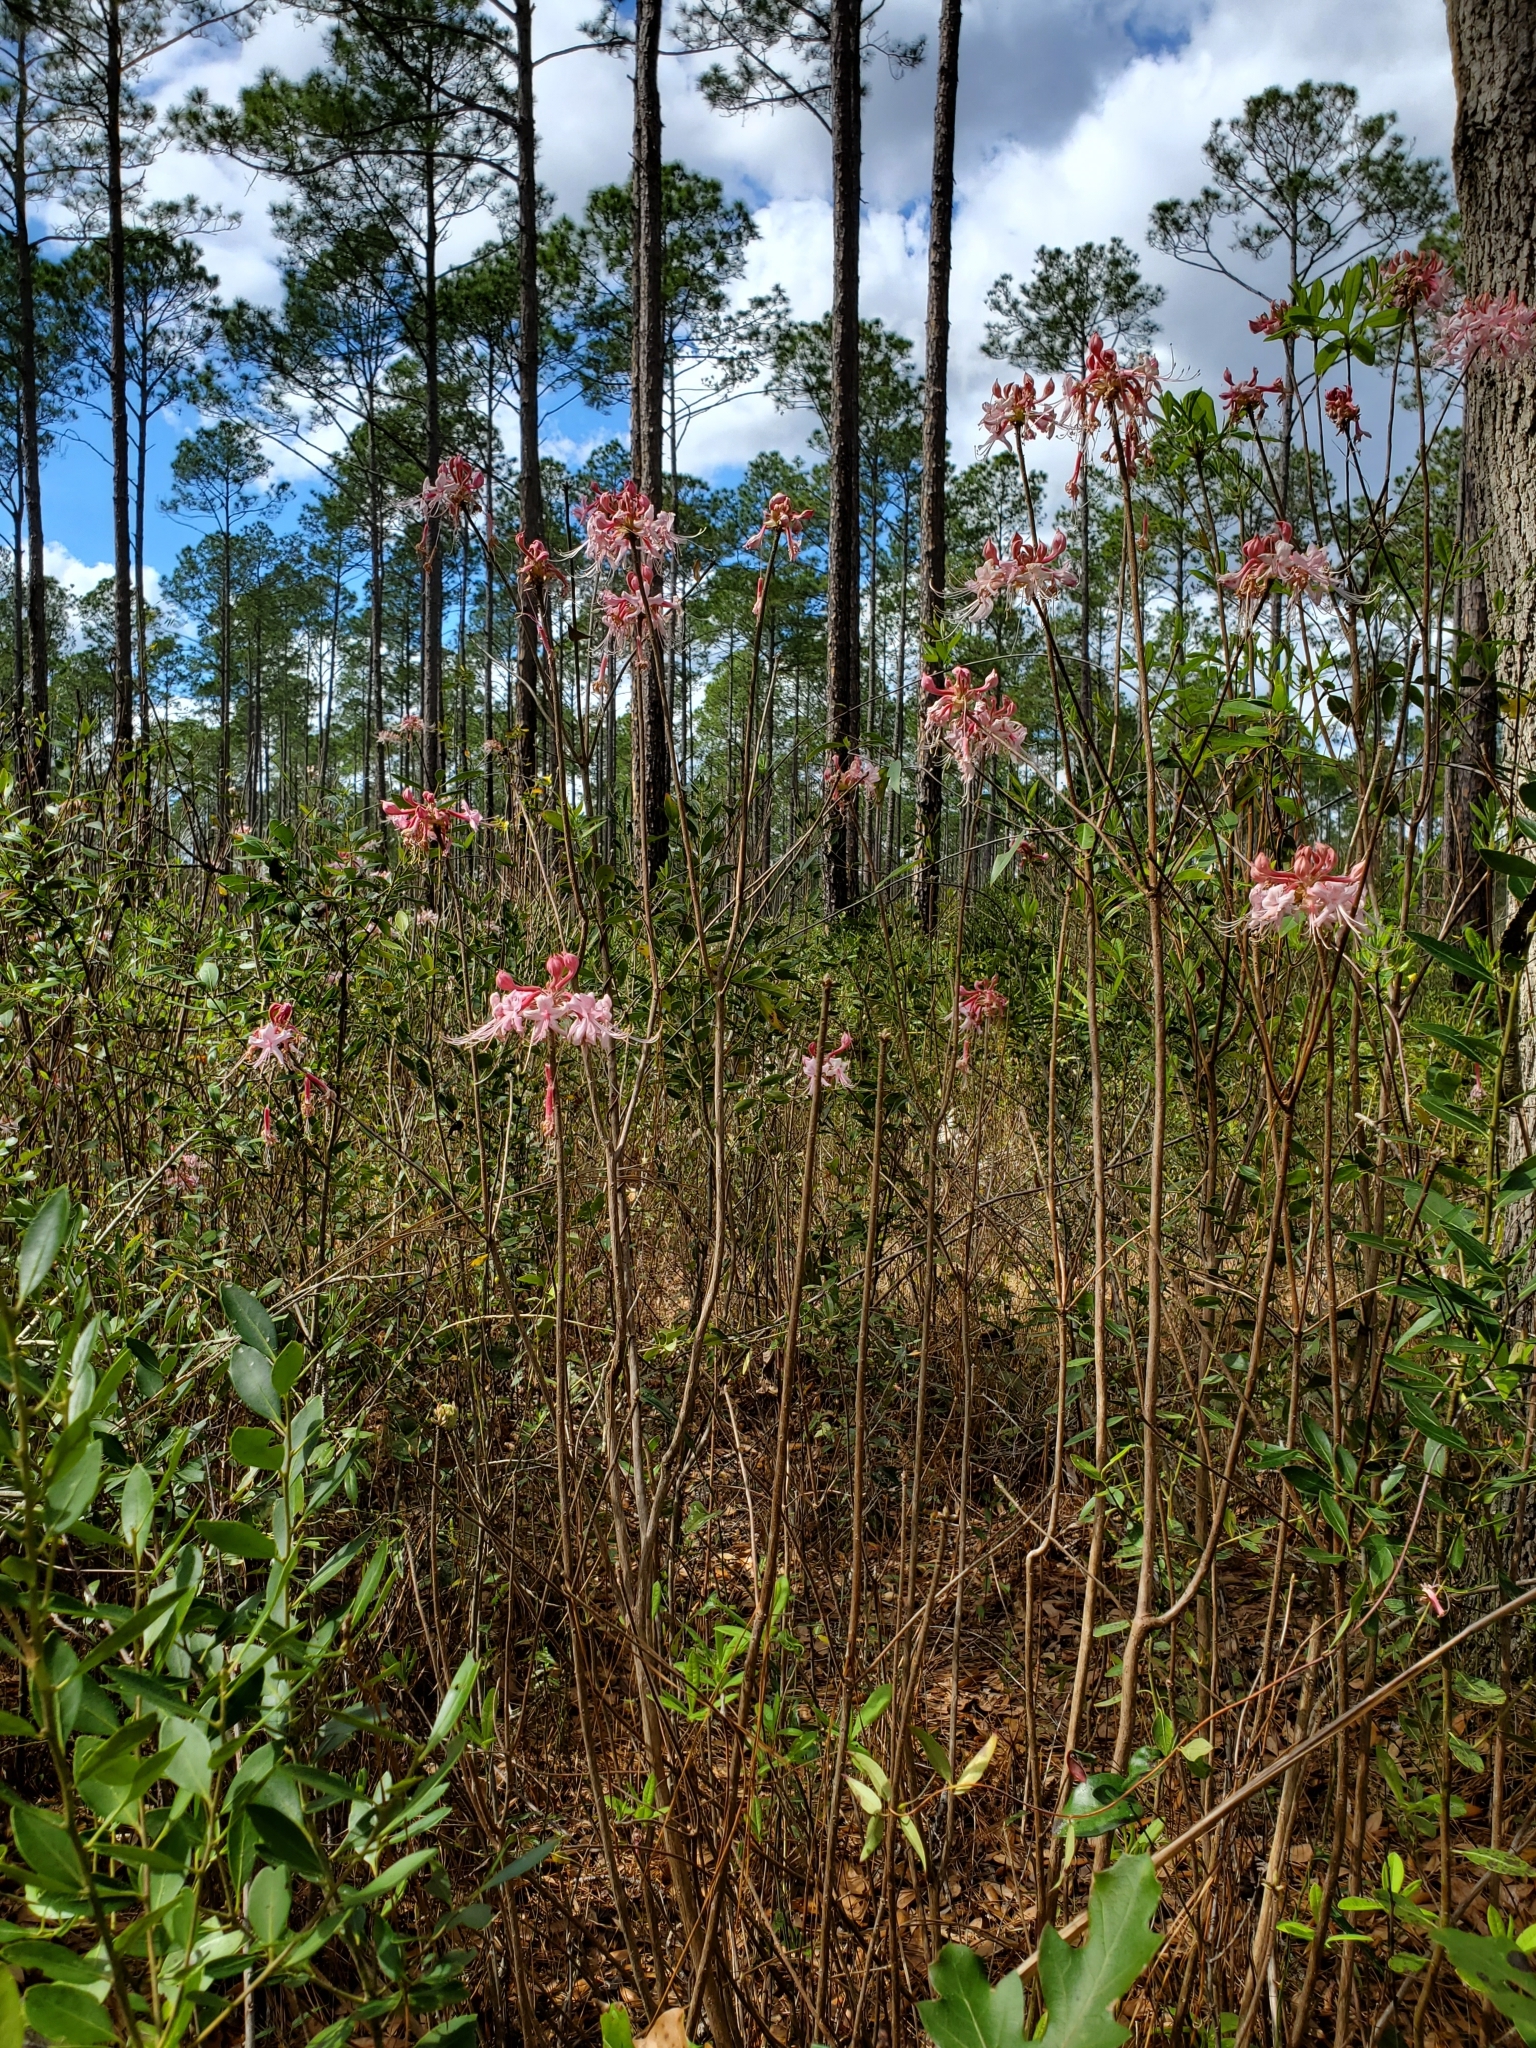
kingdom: Plantae
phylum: Tracheophyta
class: Magnoliopsida
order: Ericales
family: Ericaceae
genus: Rhododendron
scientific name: Rhododendron canescens
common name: Mountain azalea
